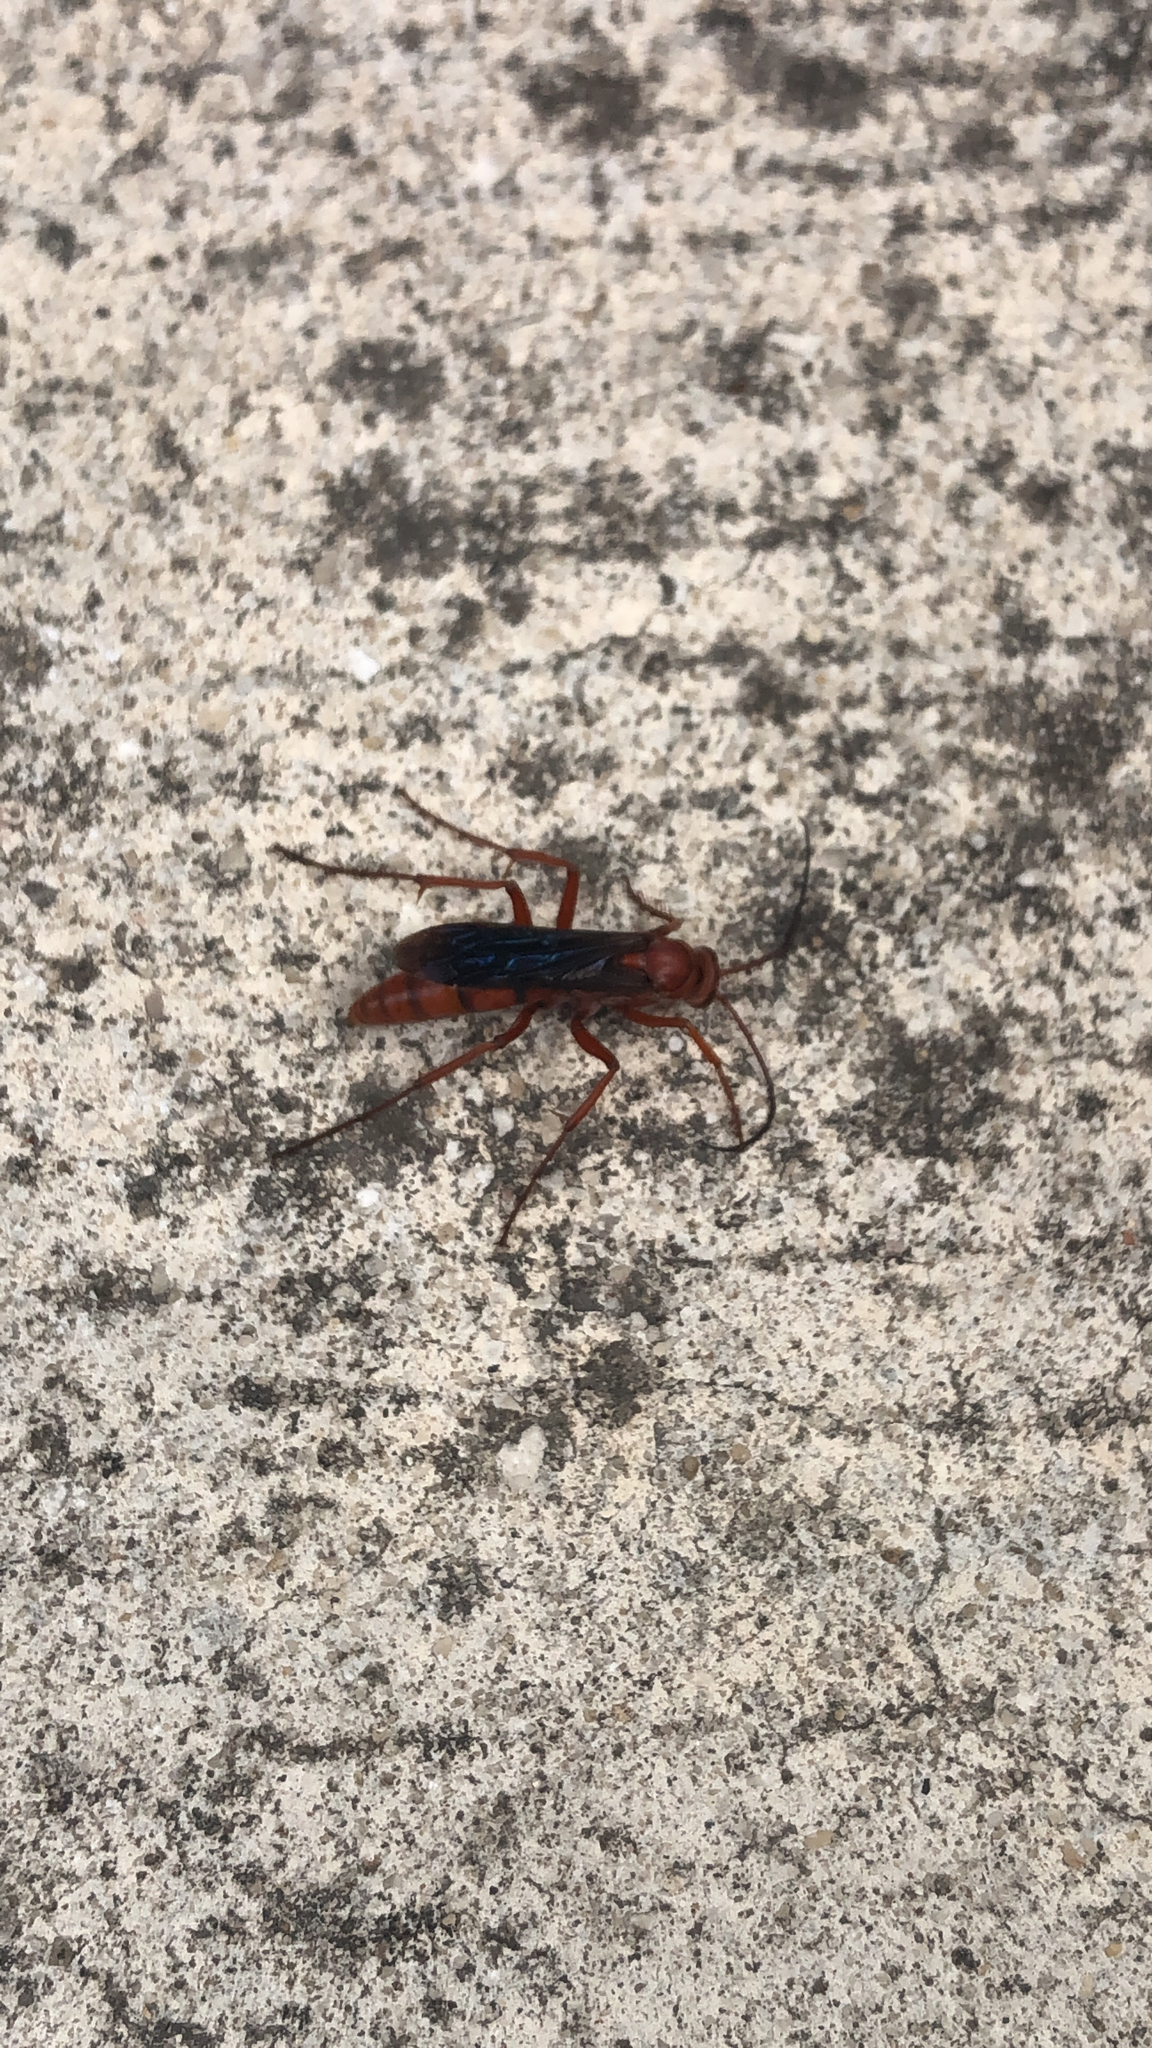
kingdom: Animalia
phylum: Arthropoda
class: Insecta
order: Hymenoptera
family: Pompilidae
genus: Tachypompilus
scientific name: Tachypompilus ferrugineus
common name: Rusty spider wasp
